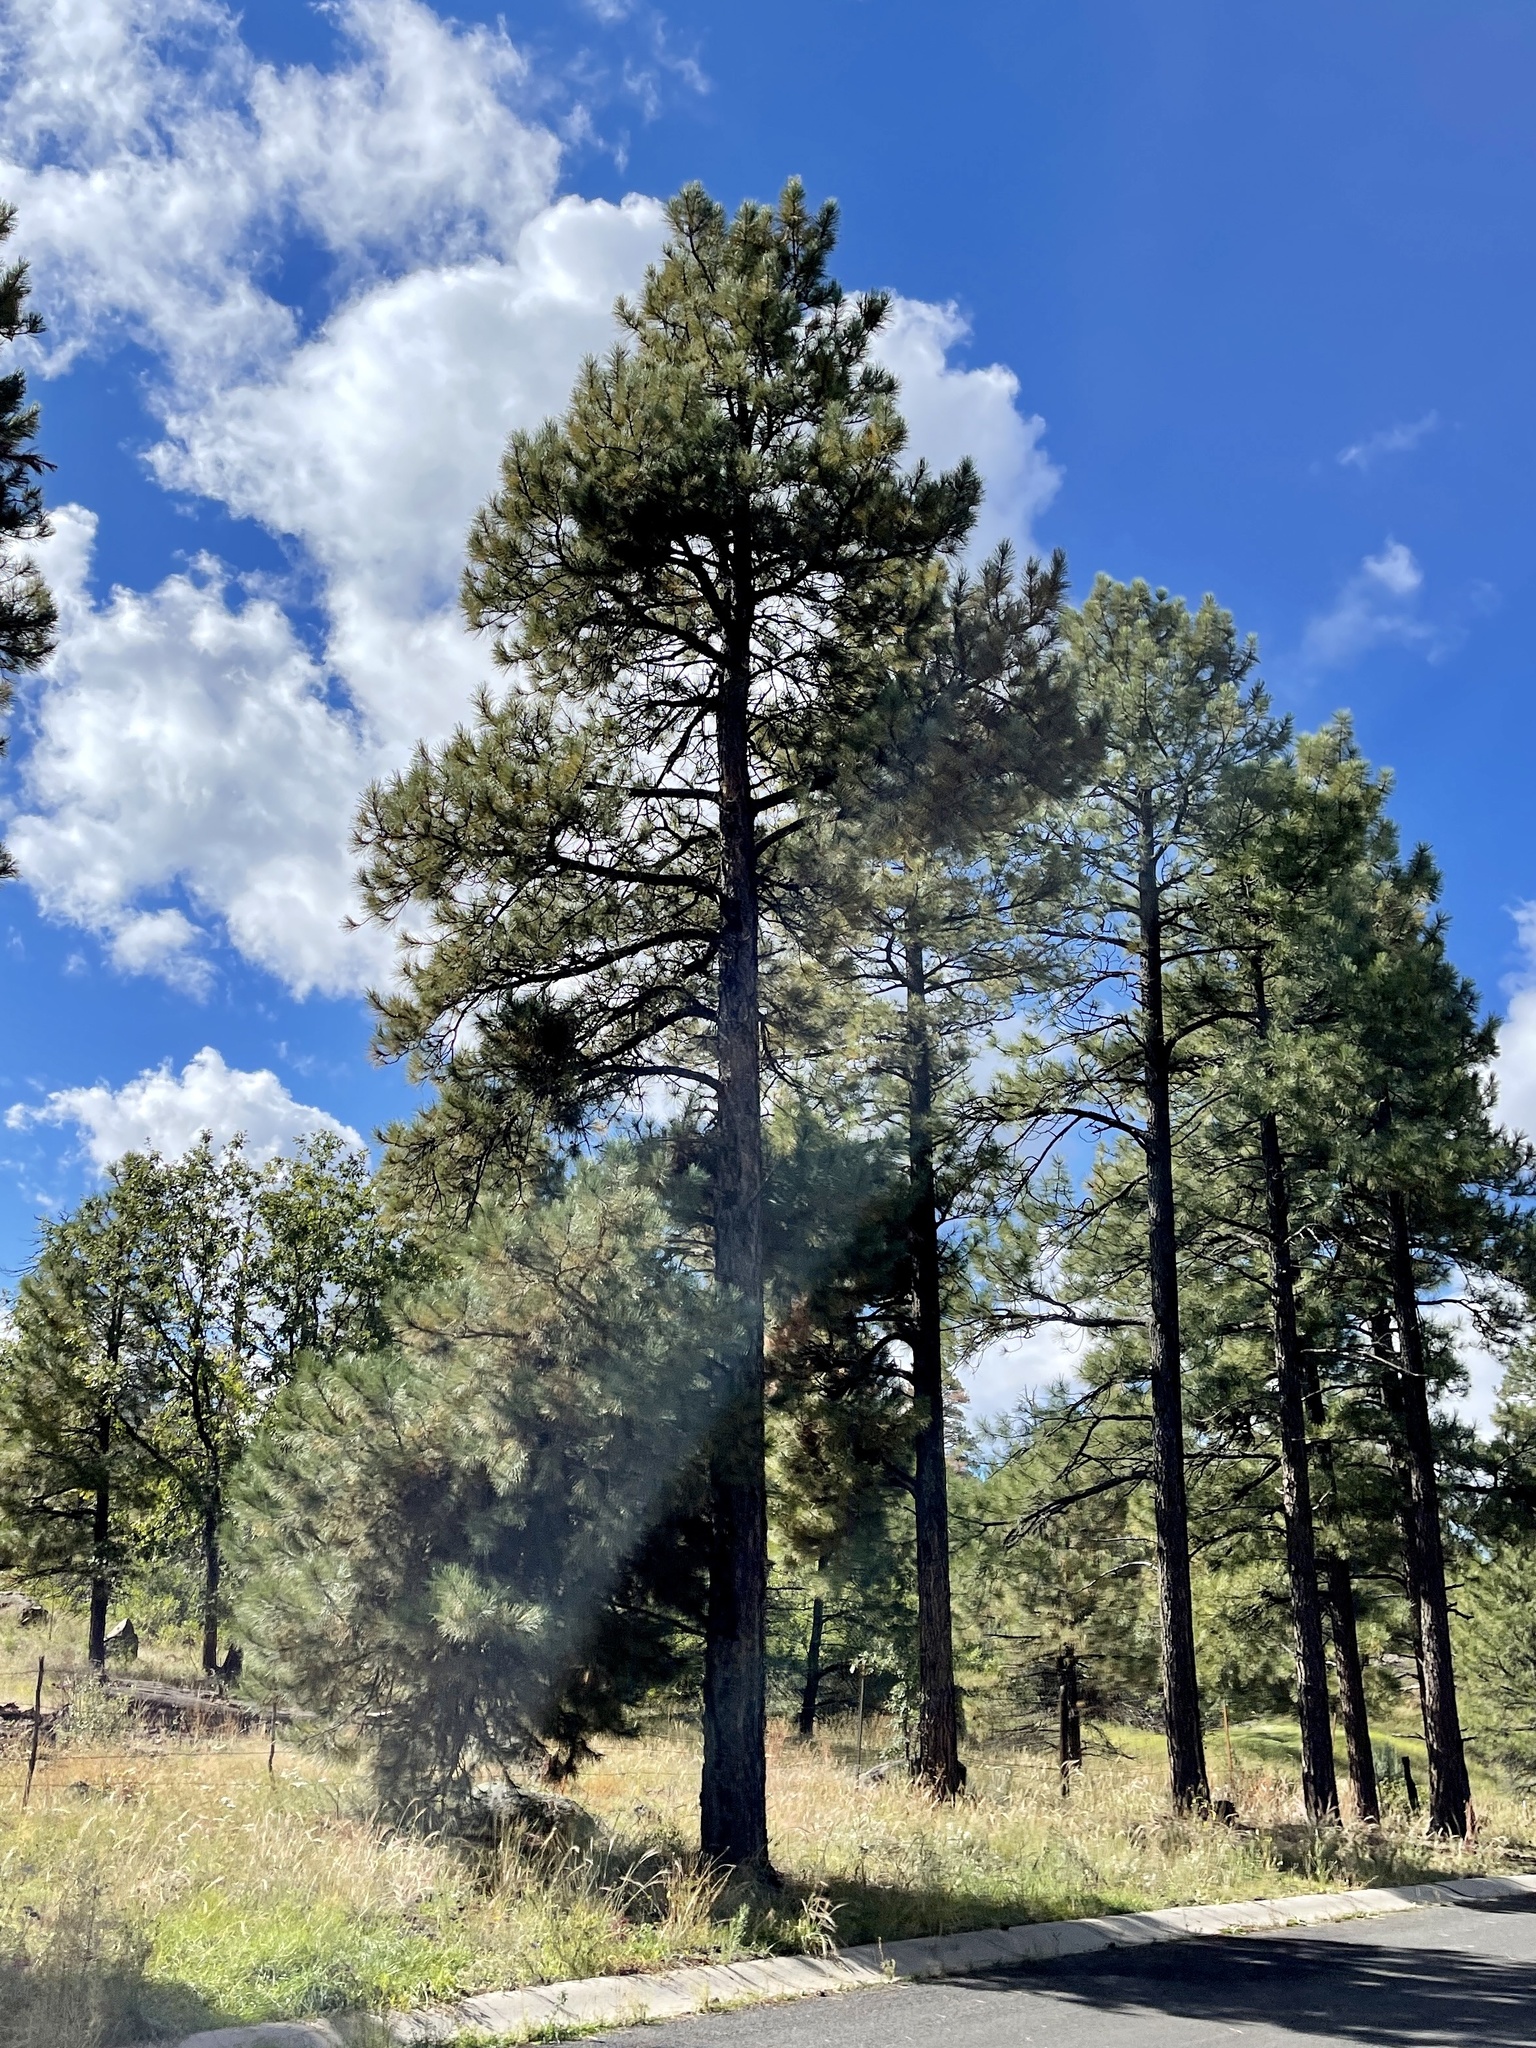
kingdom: Plantae
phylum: Tracheophyta
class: Pinopsida
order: Pinales
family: Pinaceae
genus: Pinus
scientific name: Pinus ponderosa
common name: Western yellow-pine
